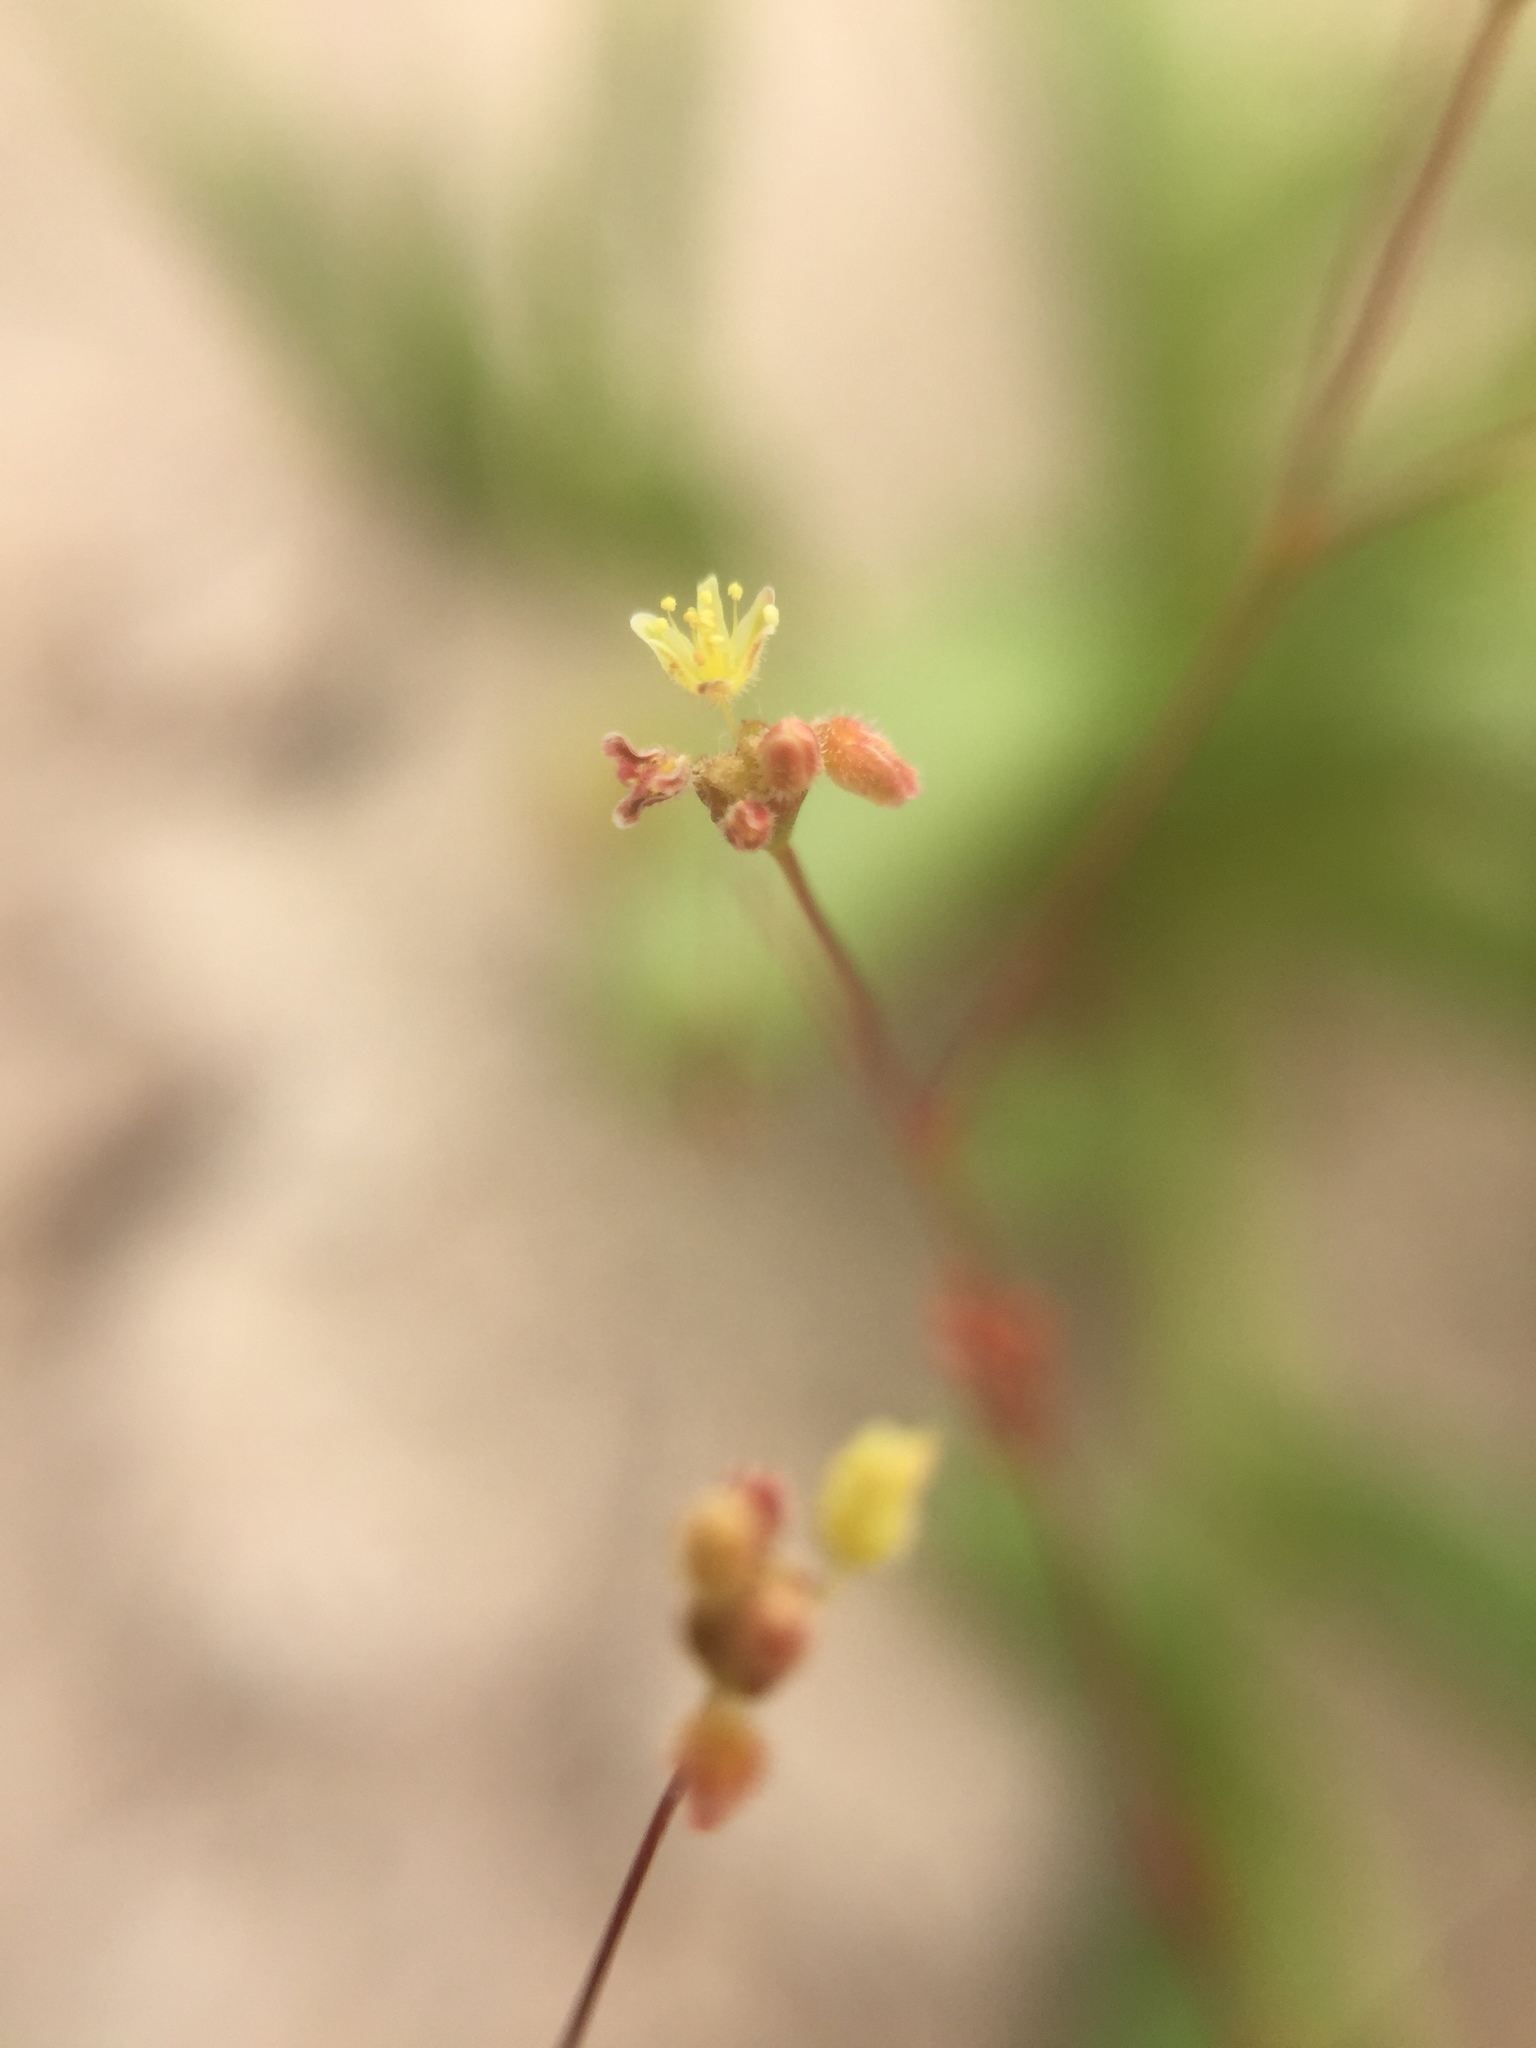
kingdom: Plantae
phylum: Tracheophyta
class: Magnoliopsida
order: Caryophyllales
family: Polygonaceae
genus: Pterostegia
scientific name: Pterostegia drymarioides
